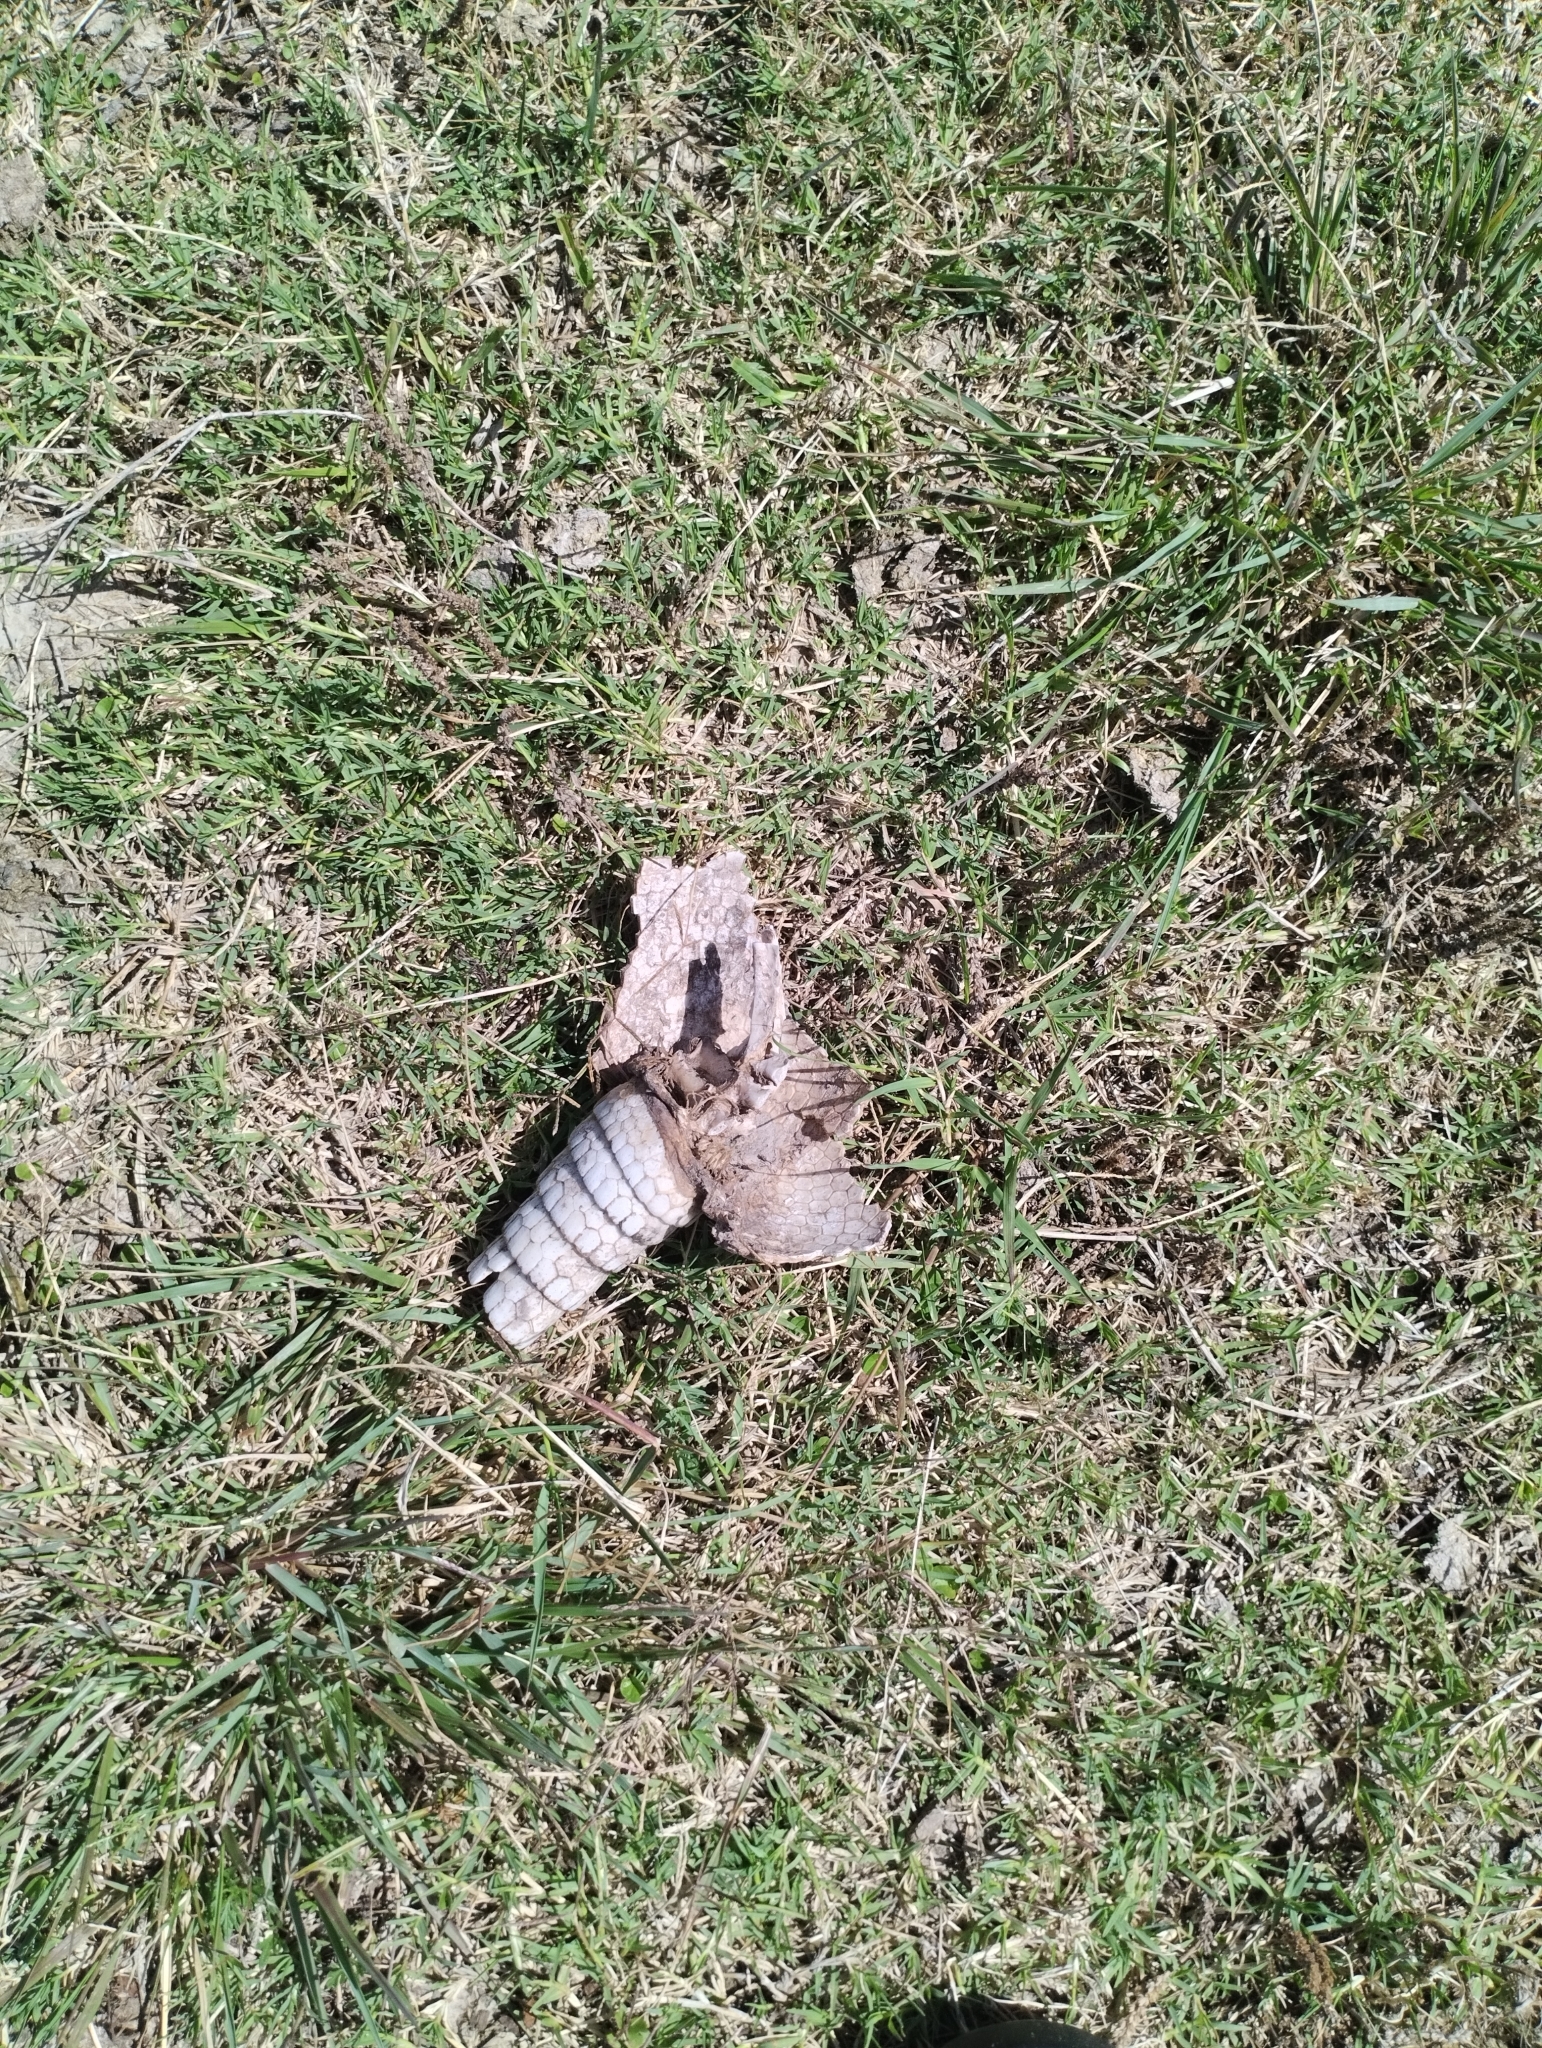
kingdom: Animalia
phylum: Chordata
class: Mammalia
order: Cingulata
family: Dasypodidae
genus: Dasypus
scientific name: Dasypus novemcinctus
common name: Nine-banded armadillo
